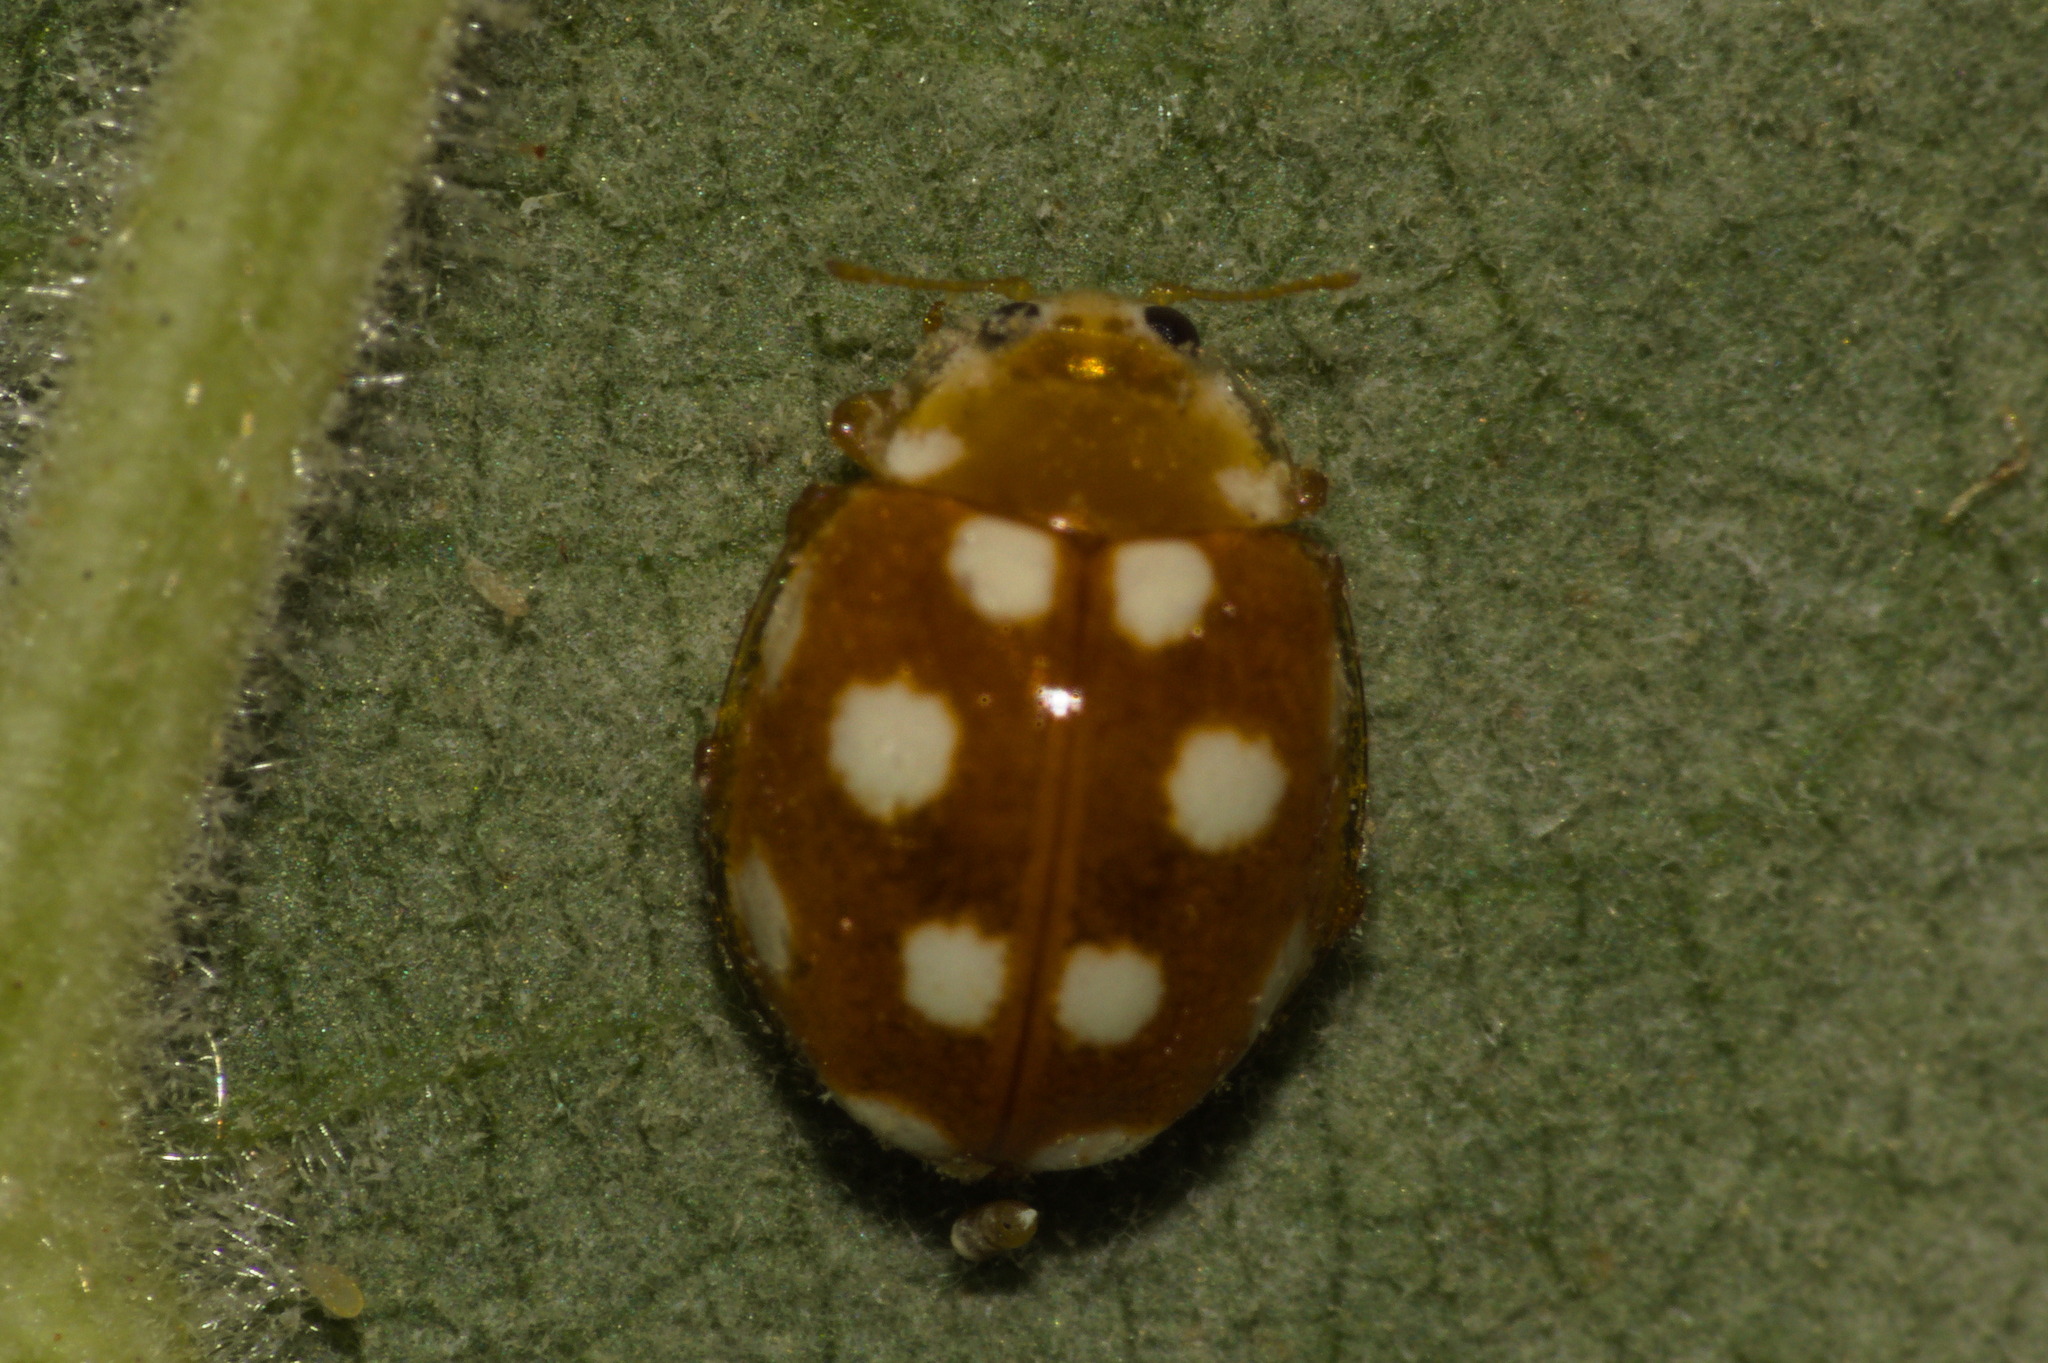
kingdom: Animalia
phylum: Arthropoda
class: Insecta
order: Coleoptera
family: Coccinellidae
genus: Vibidia
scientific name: Vibidia duodecimguttata
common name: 12-spot ladybird
